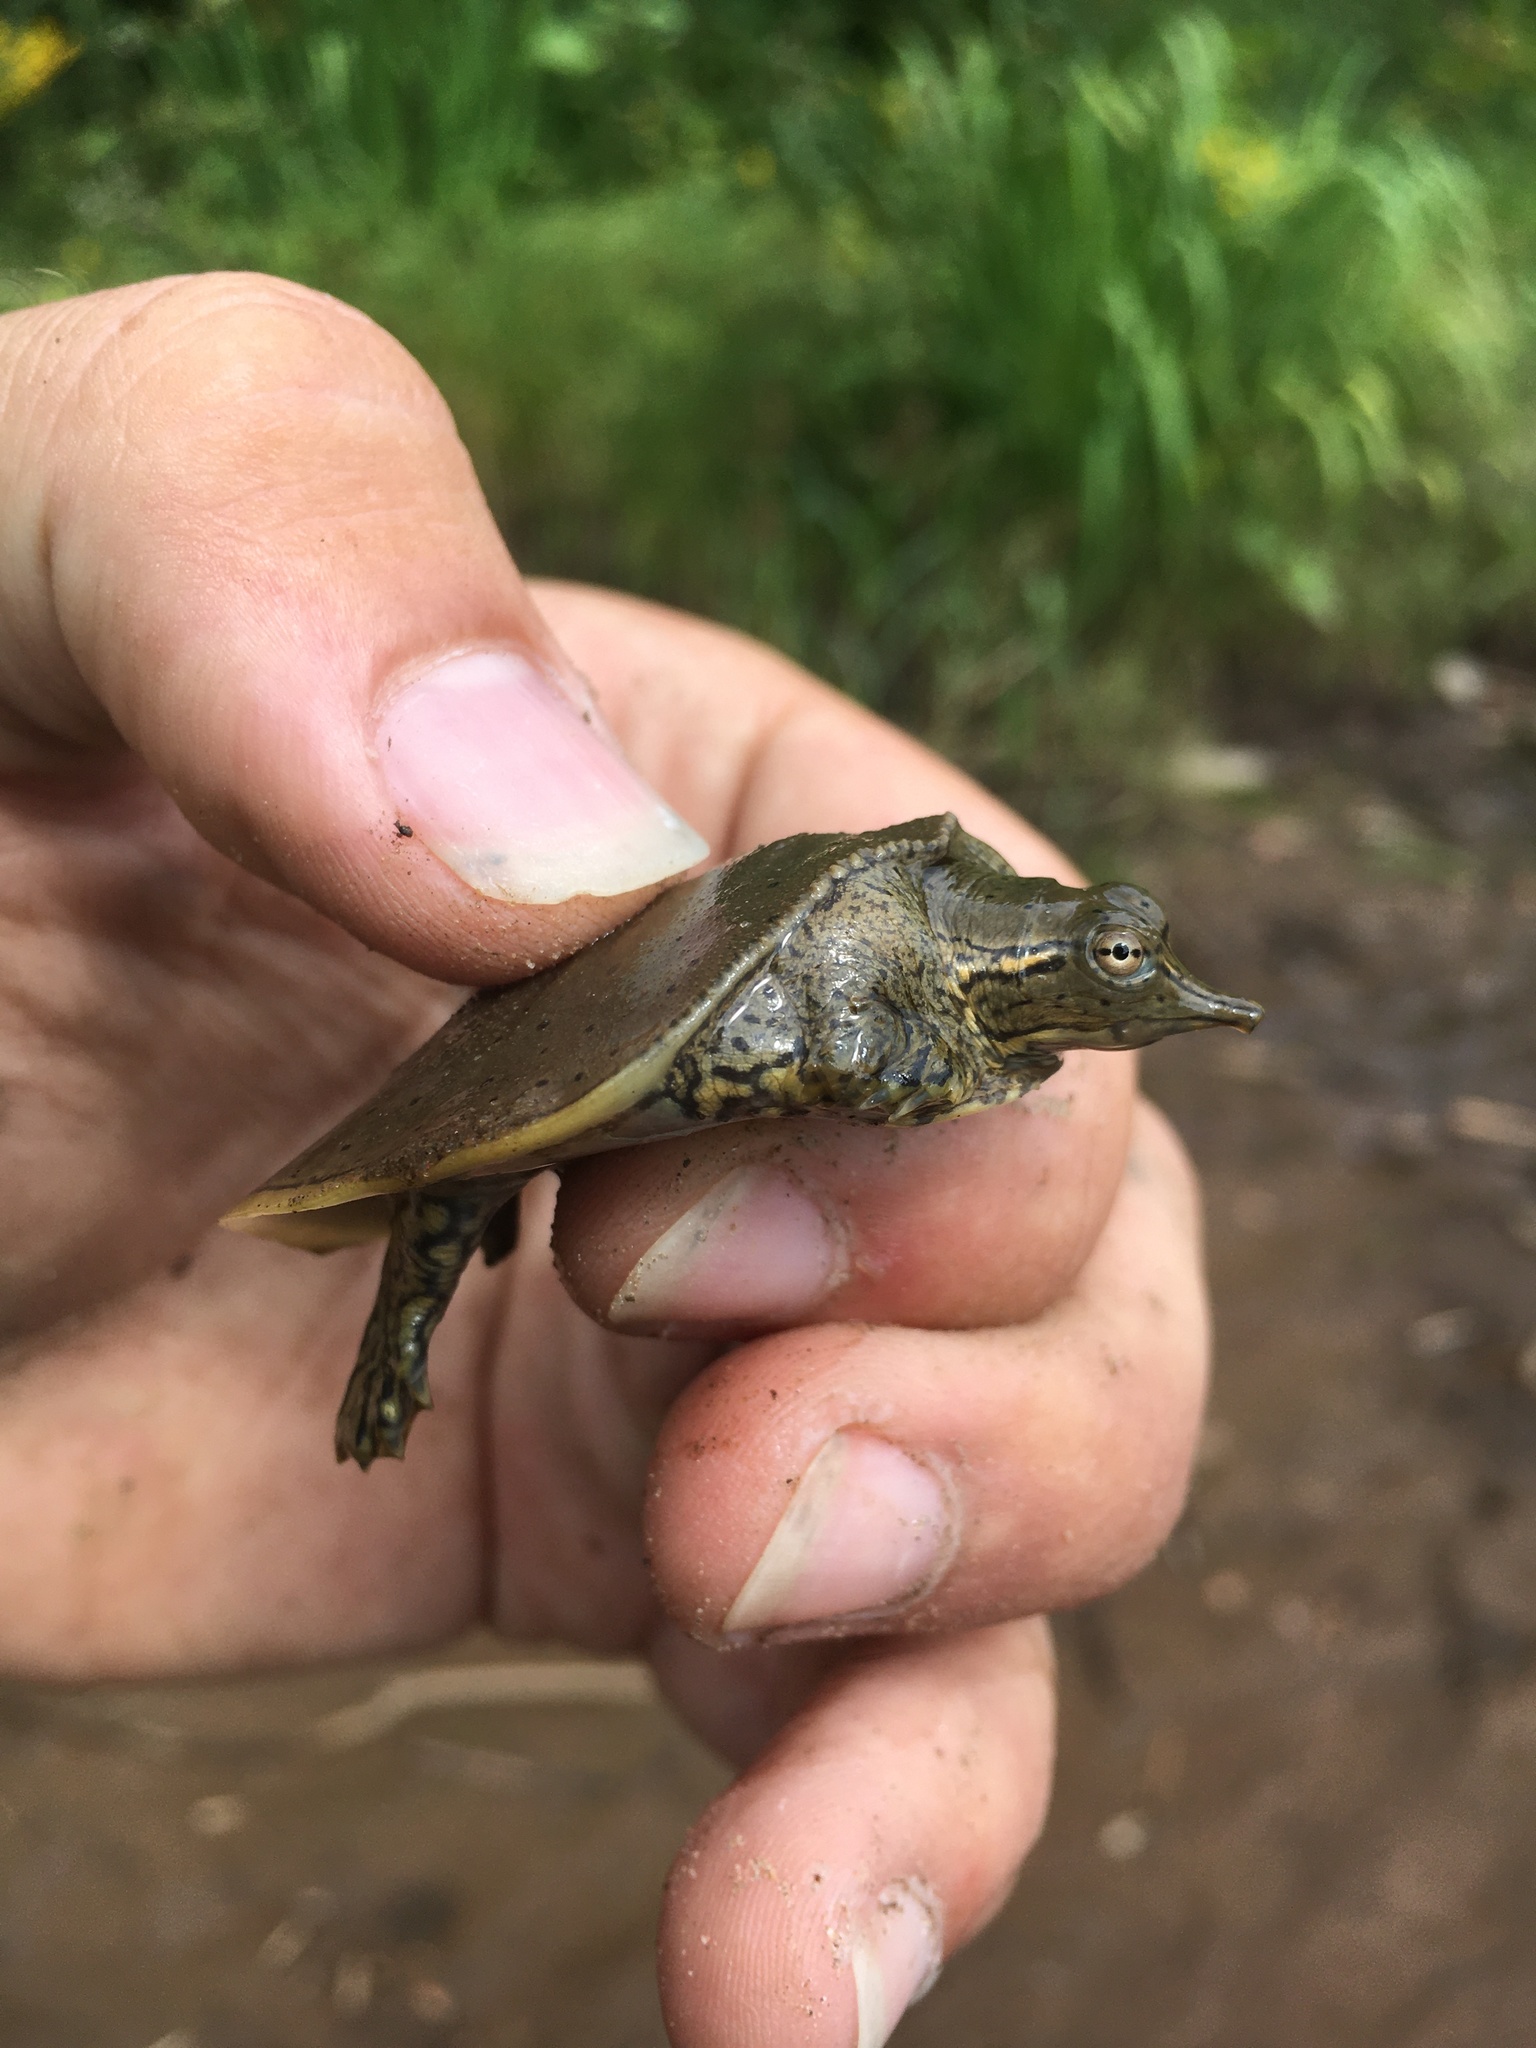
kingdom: Animalia
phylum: Chordata
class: Testudines
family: Trionychidae
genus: Apalone
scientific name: Apalone spinifera
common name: Spiny softshell turtle
